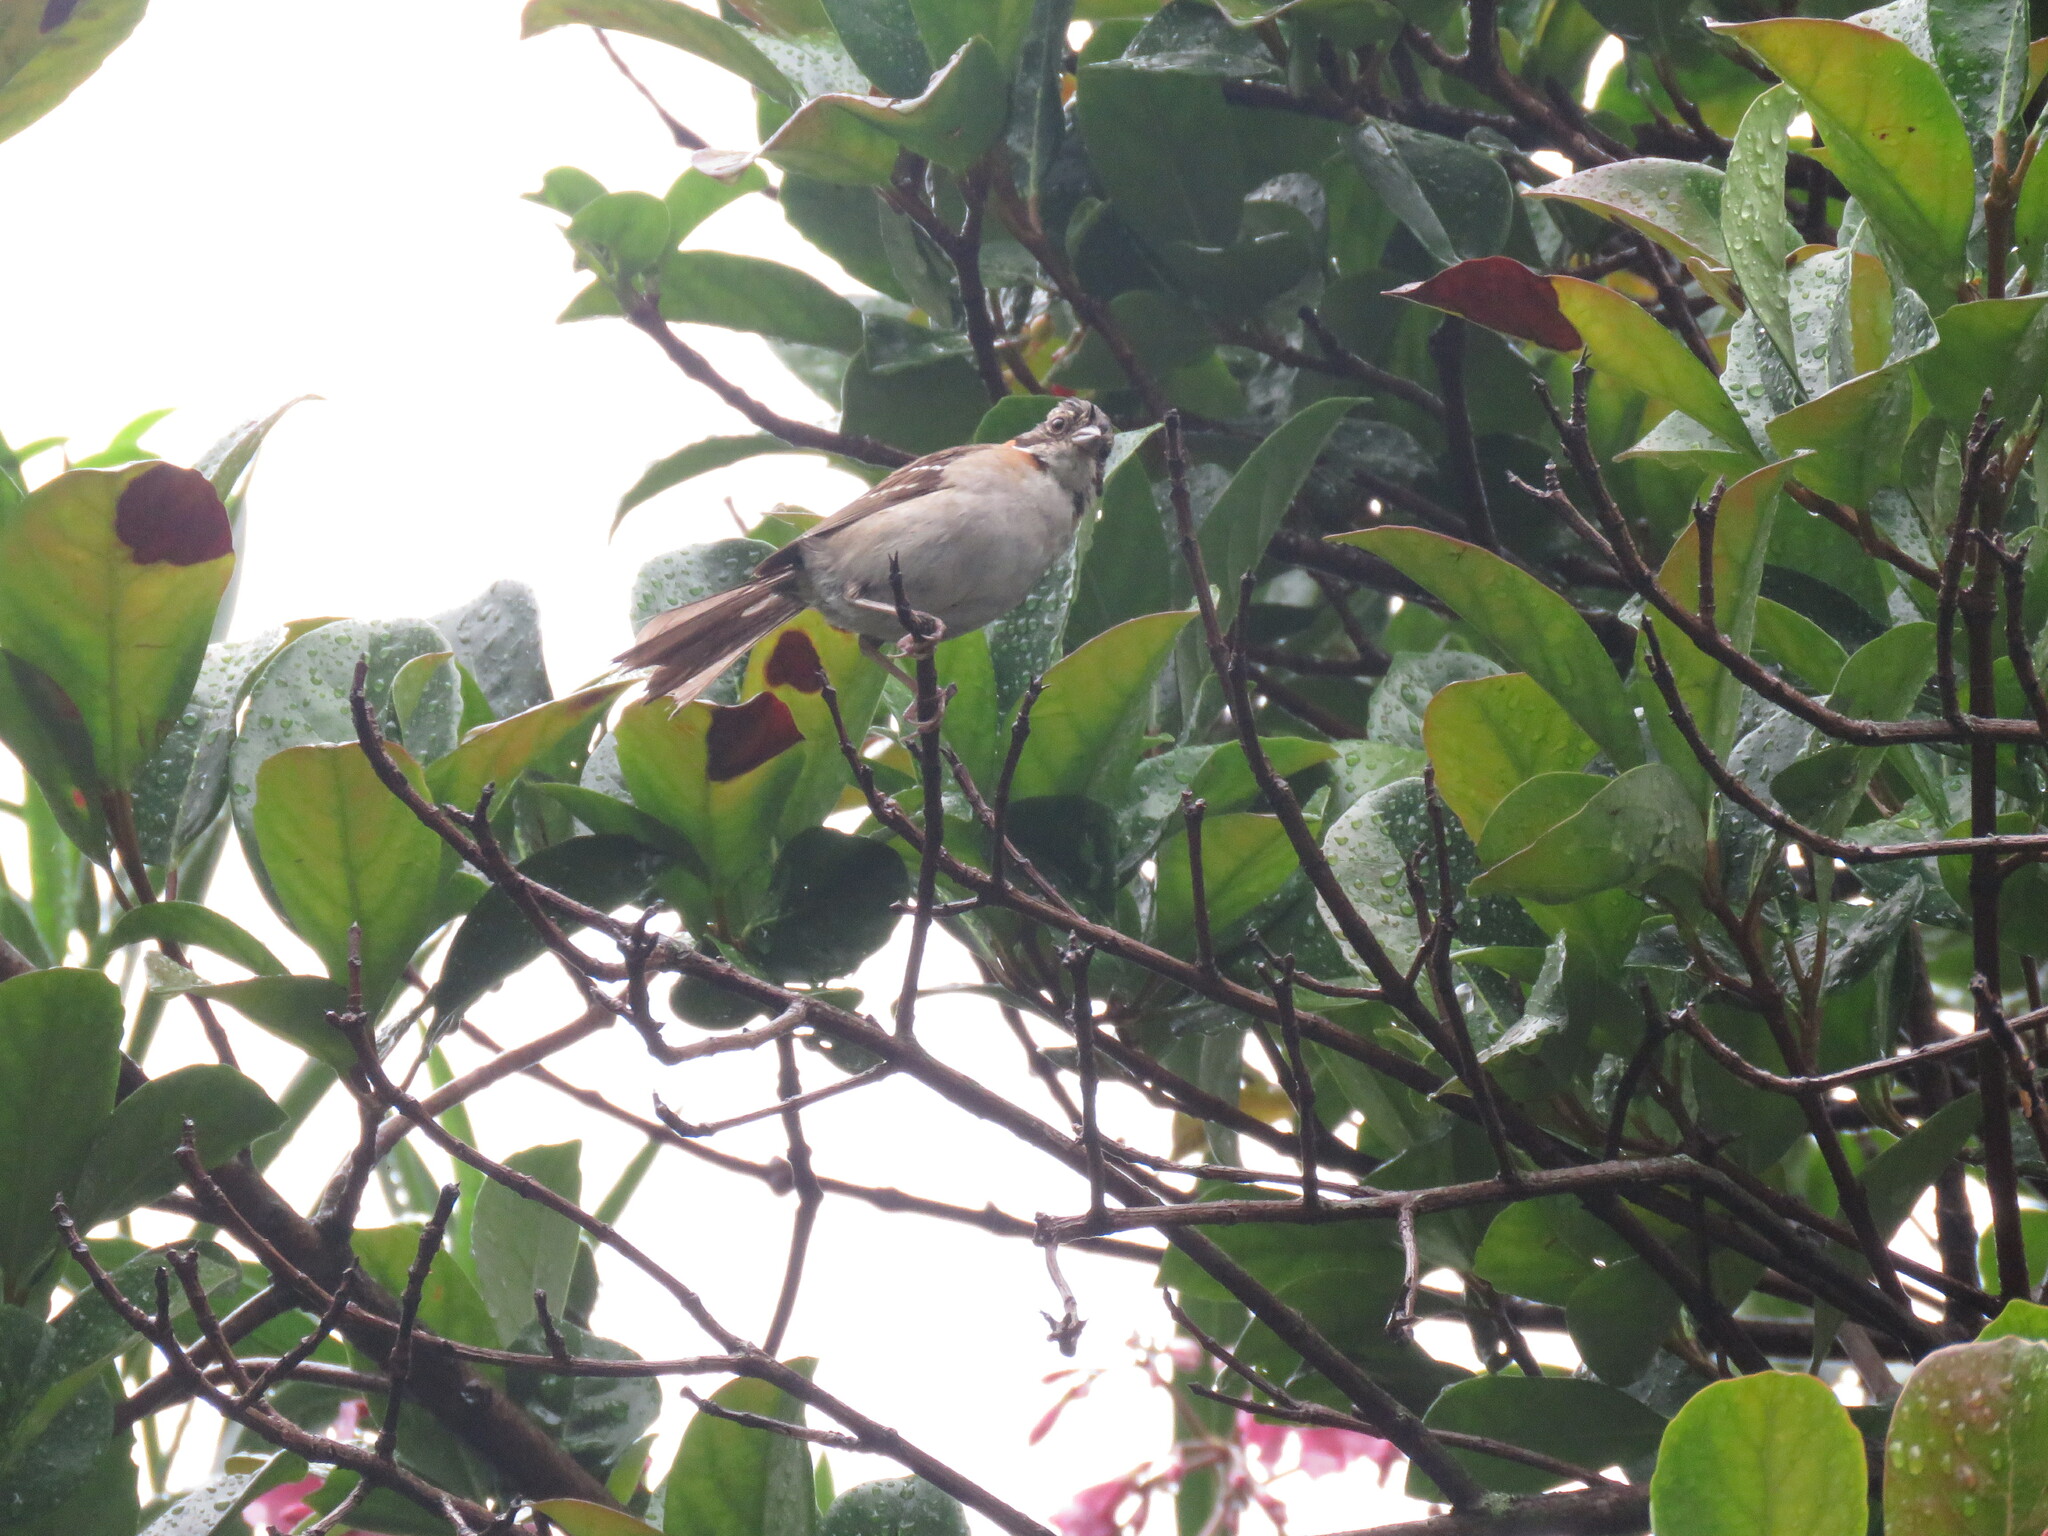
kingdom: Animalia
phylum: Chordata
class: Aves
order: Passeriformes
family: Passerellidae
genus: Zonotrichia
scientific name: Zonotrichia capensis
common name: Rufous-collared sparrow
